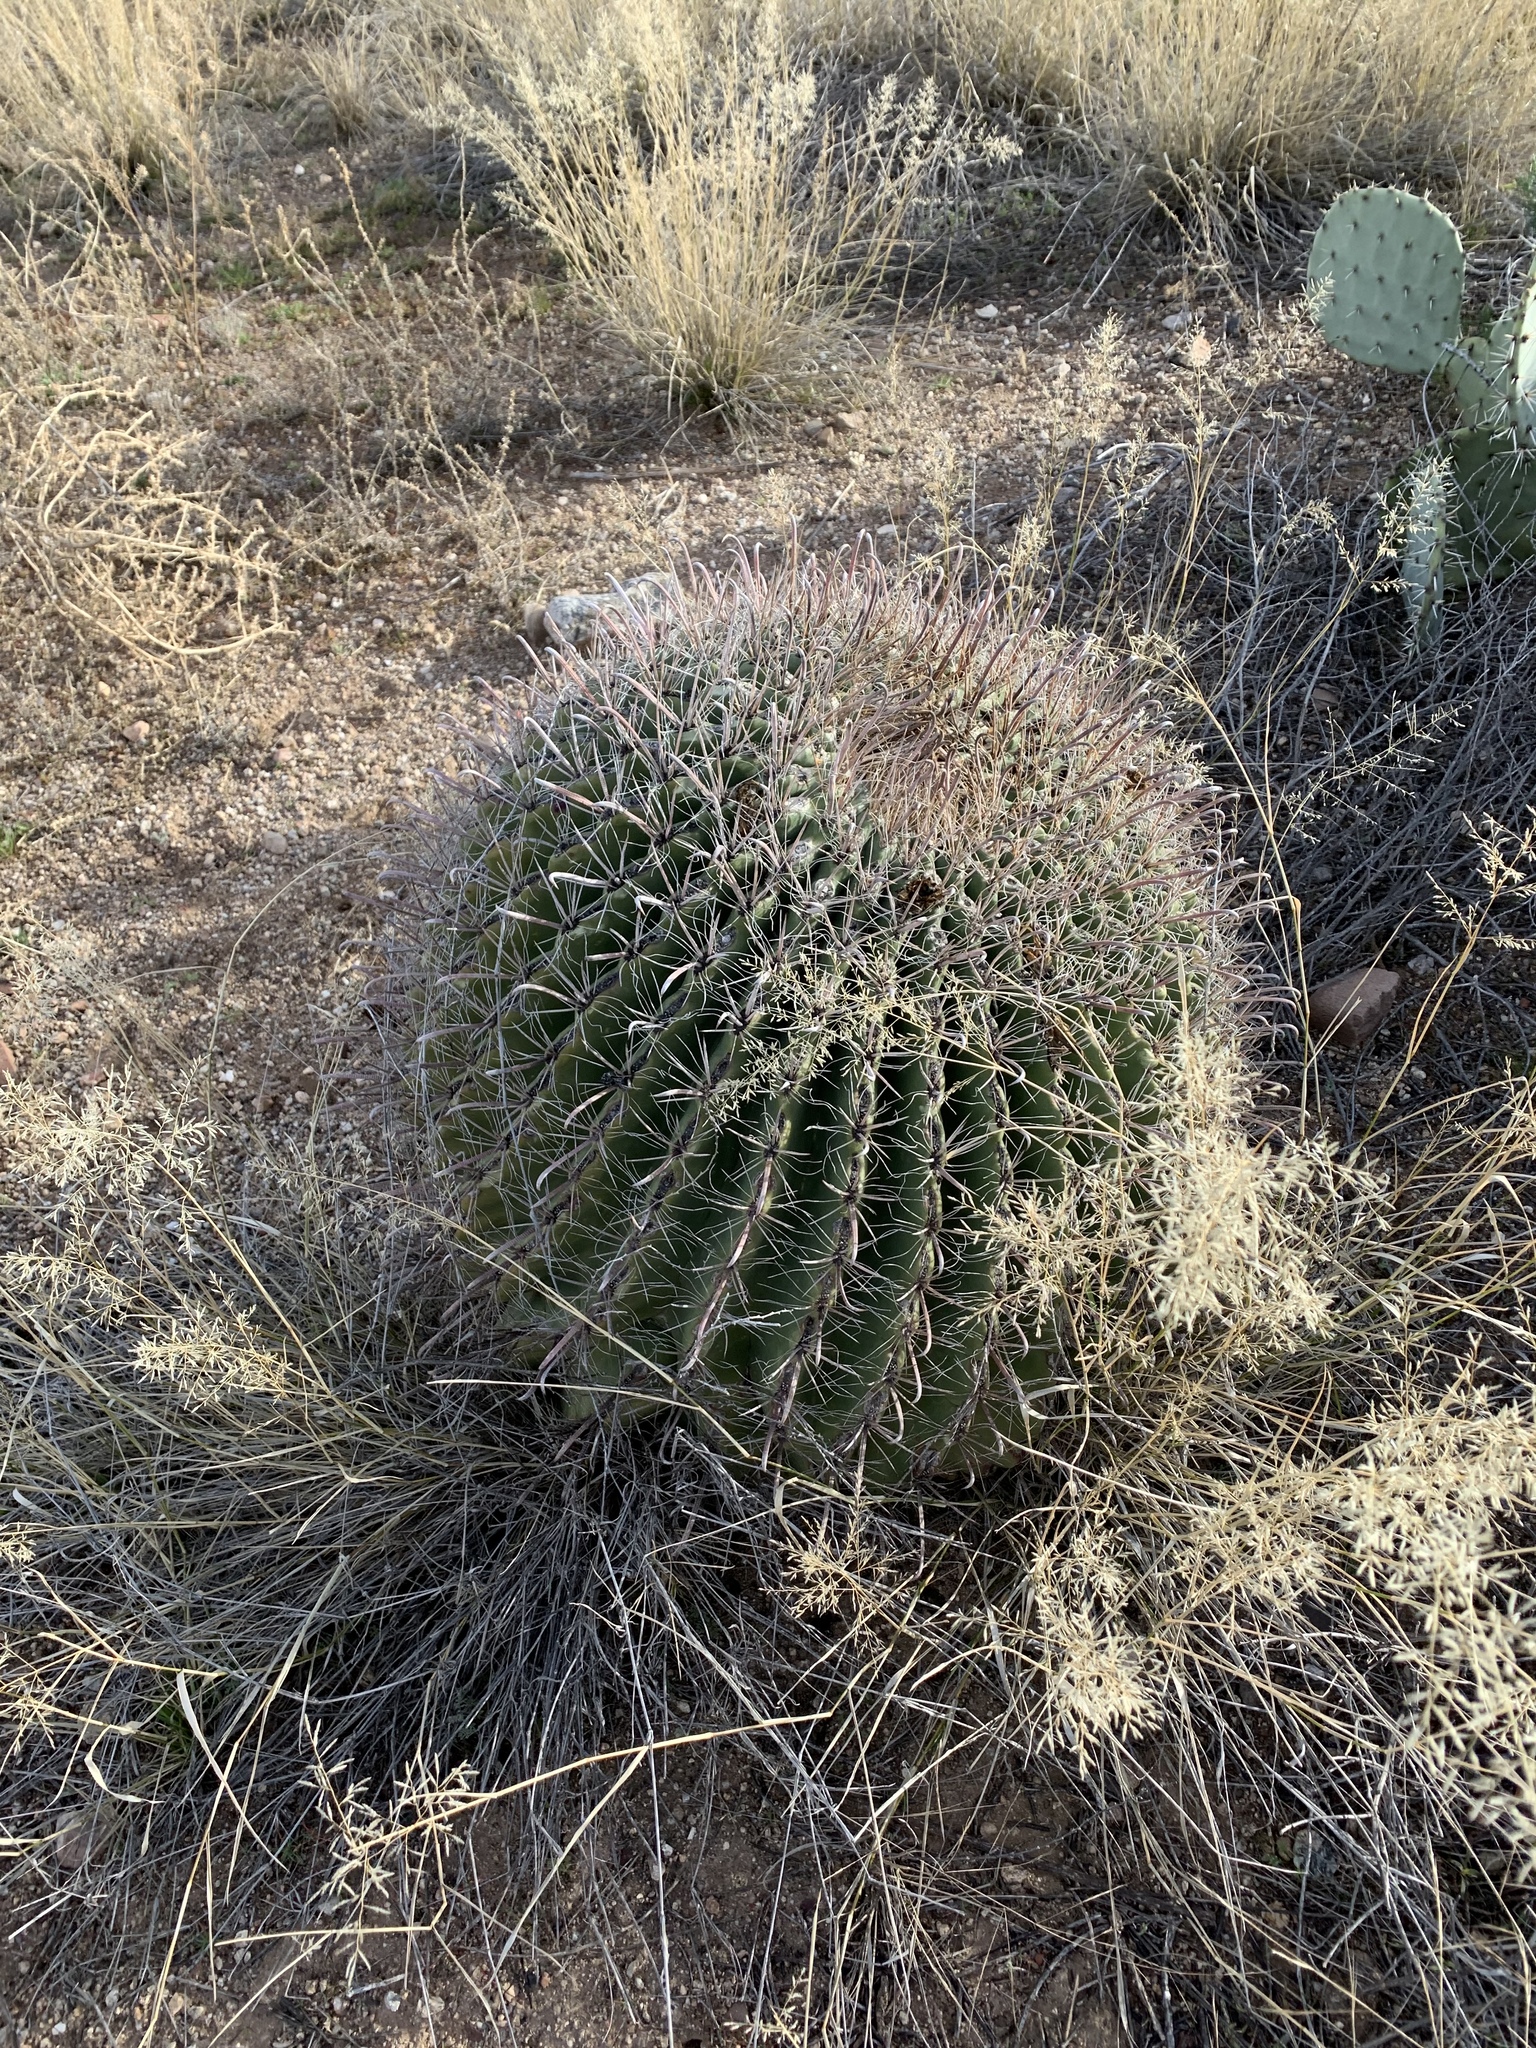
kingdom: Plantae
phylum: Tracheophyta
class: Magnoliopsida
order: Caryophyllales
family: Cactaceae
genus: Ferocactus
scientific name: Ferocactus wislizeni
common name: Candy barrel cactus
